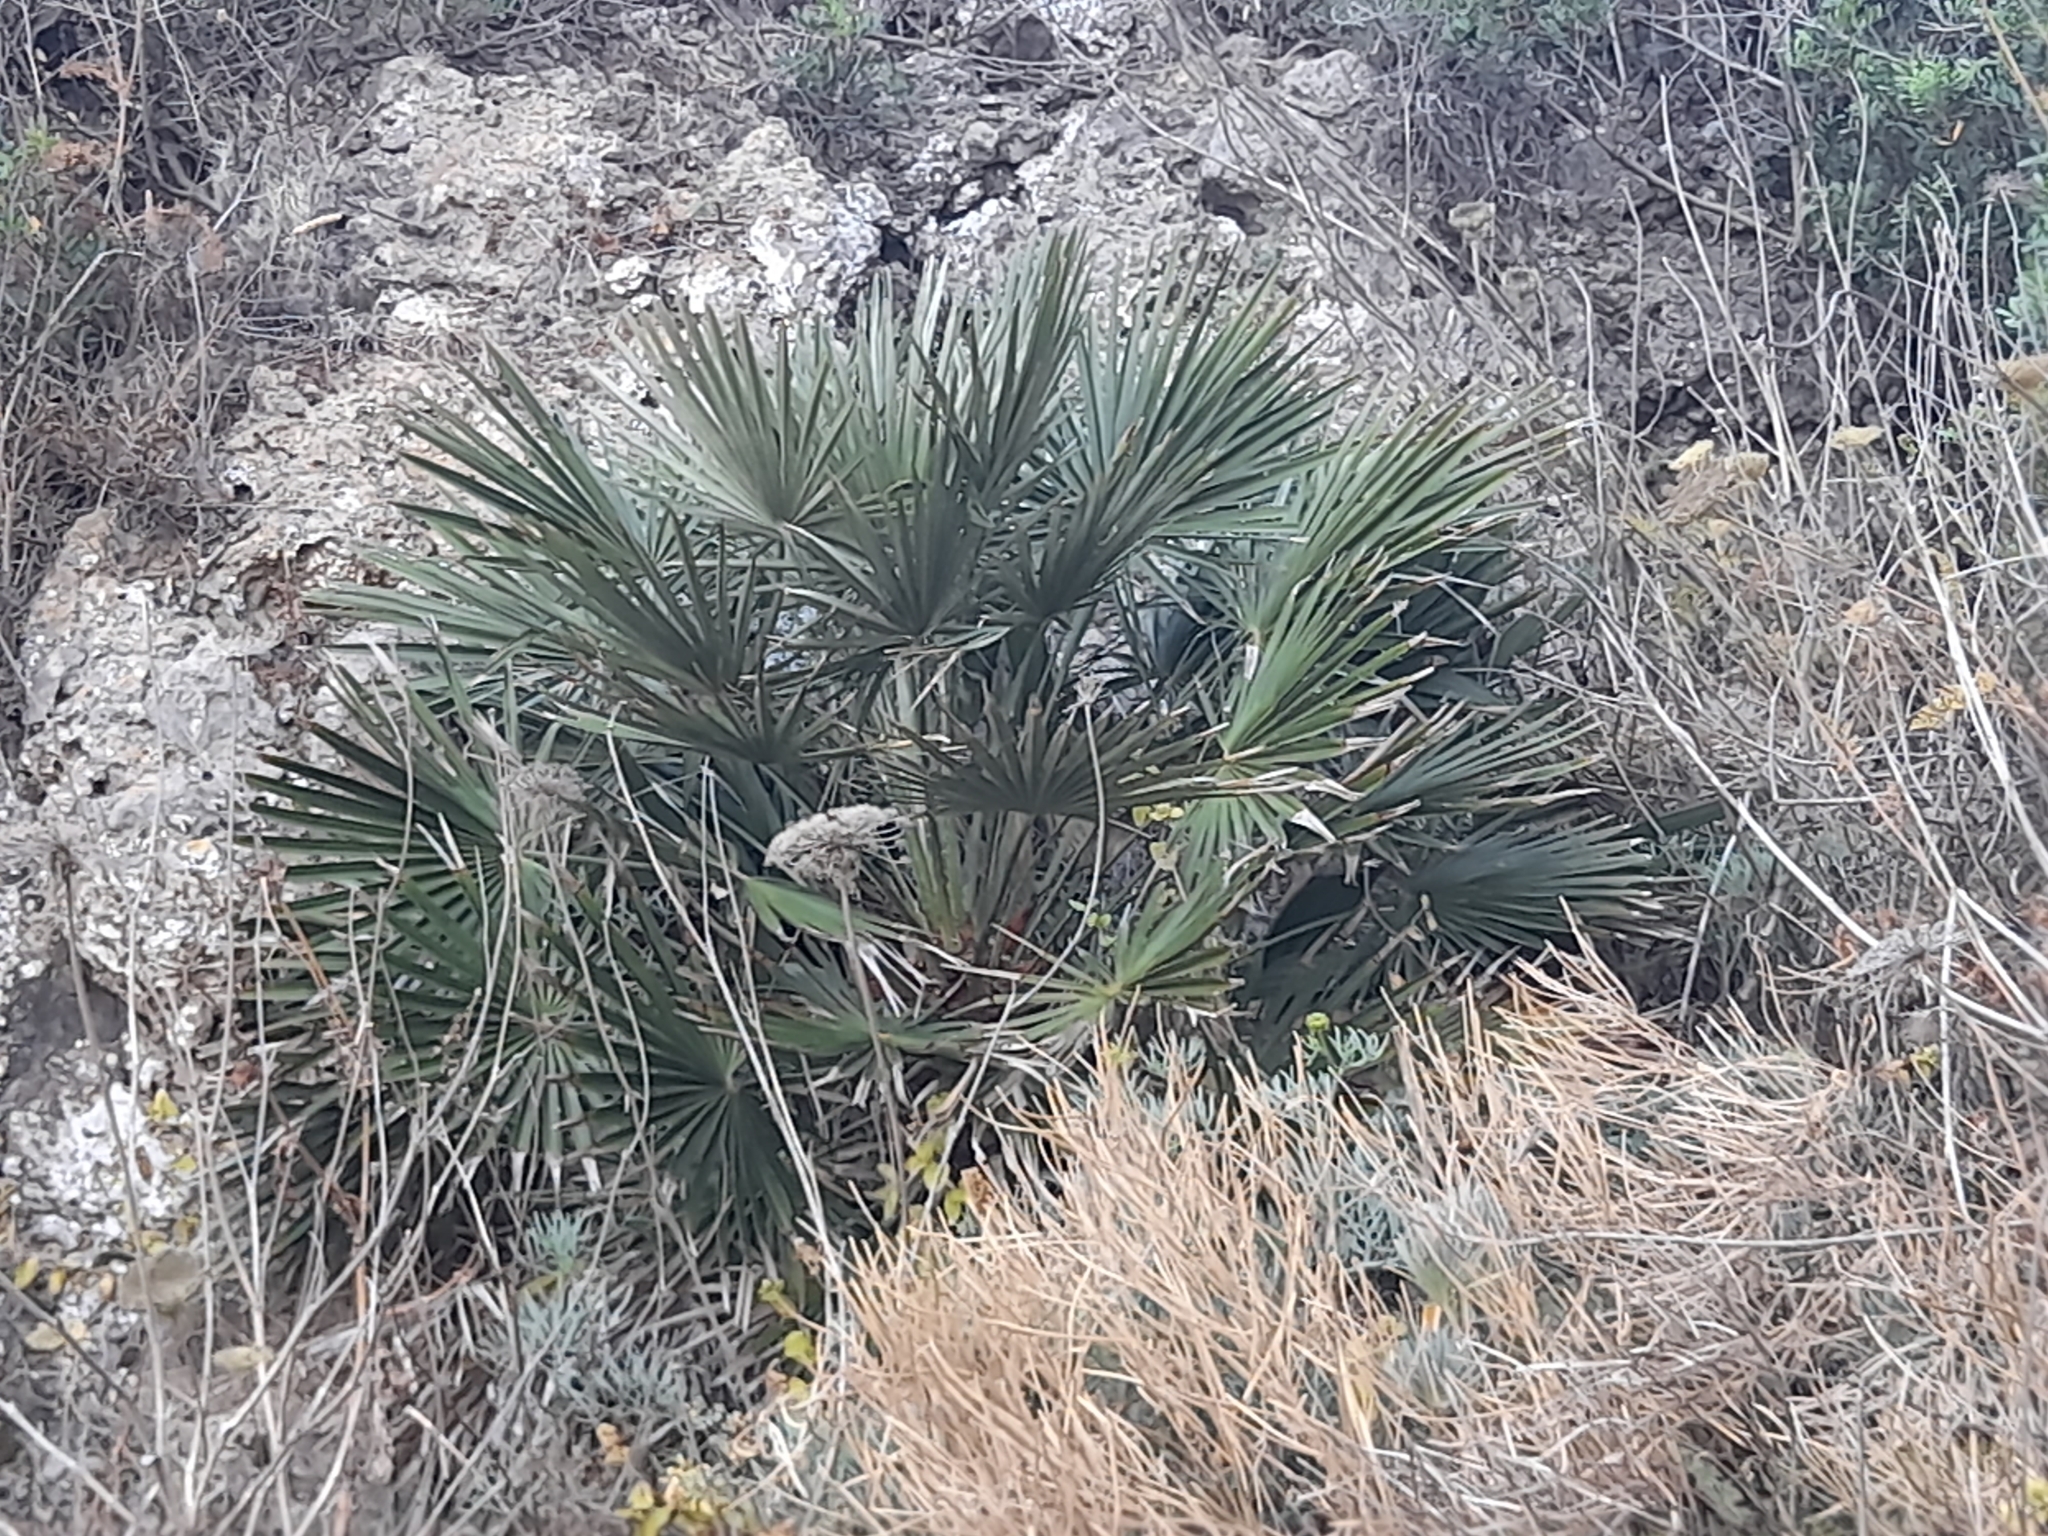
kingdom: Plantae
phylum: Tracheophyta
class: Liliopsida
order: Arecales
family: Arecaceae
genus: Chamaerops
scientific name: Chamaerops humilis
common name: Dwarf fan palm
